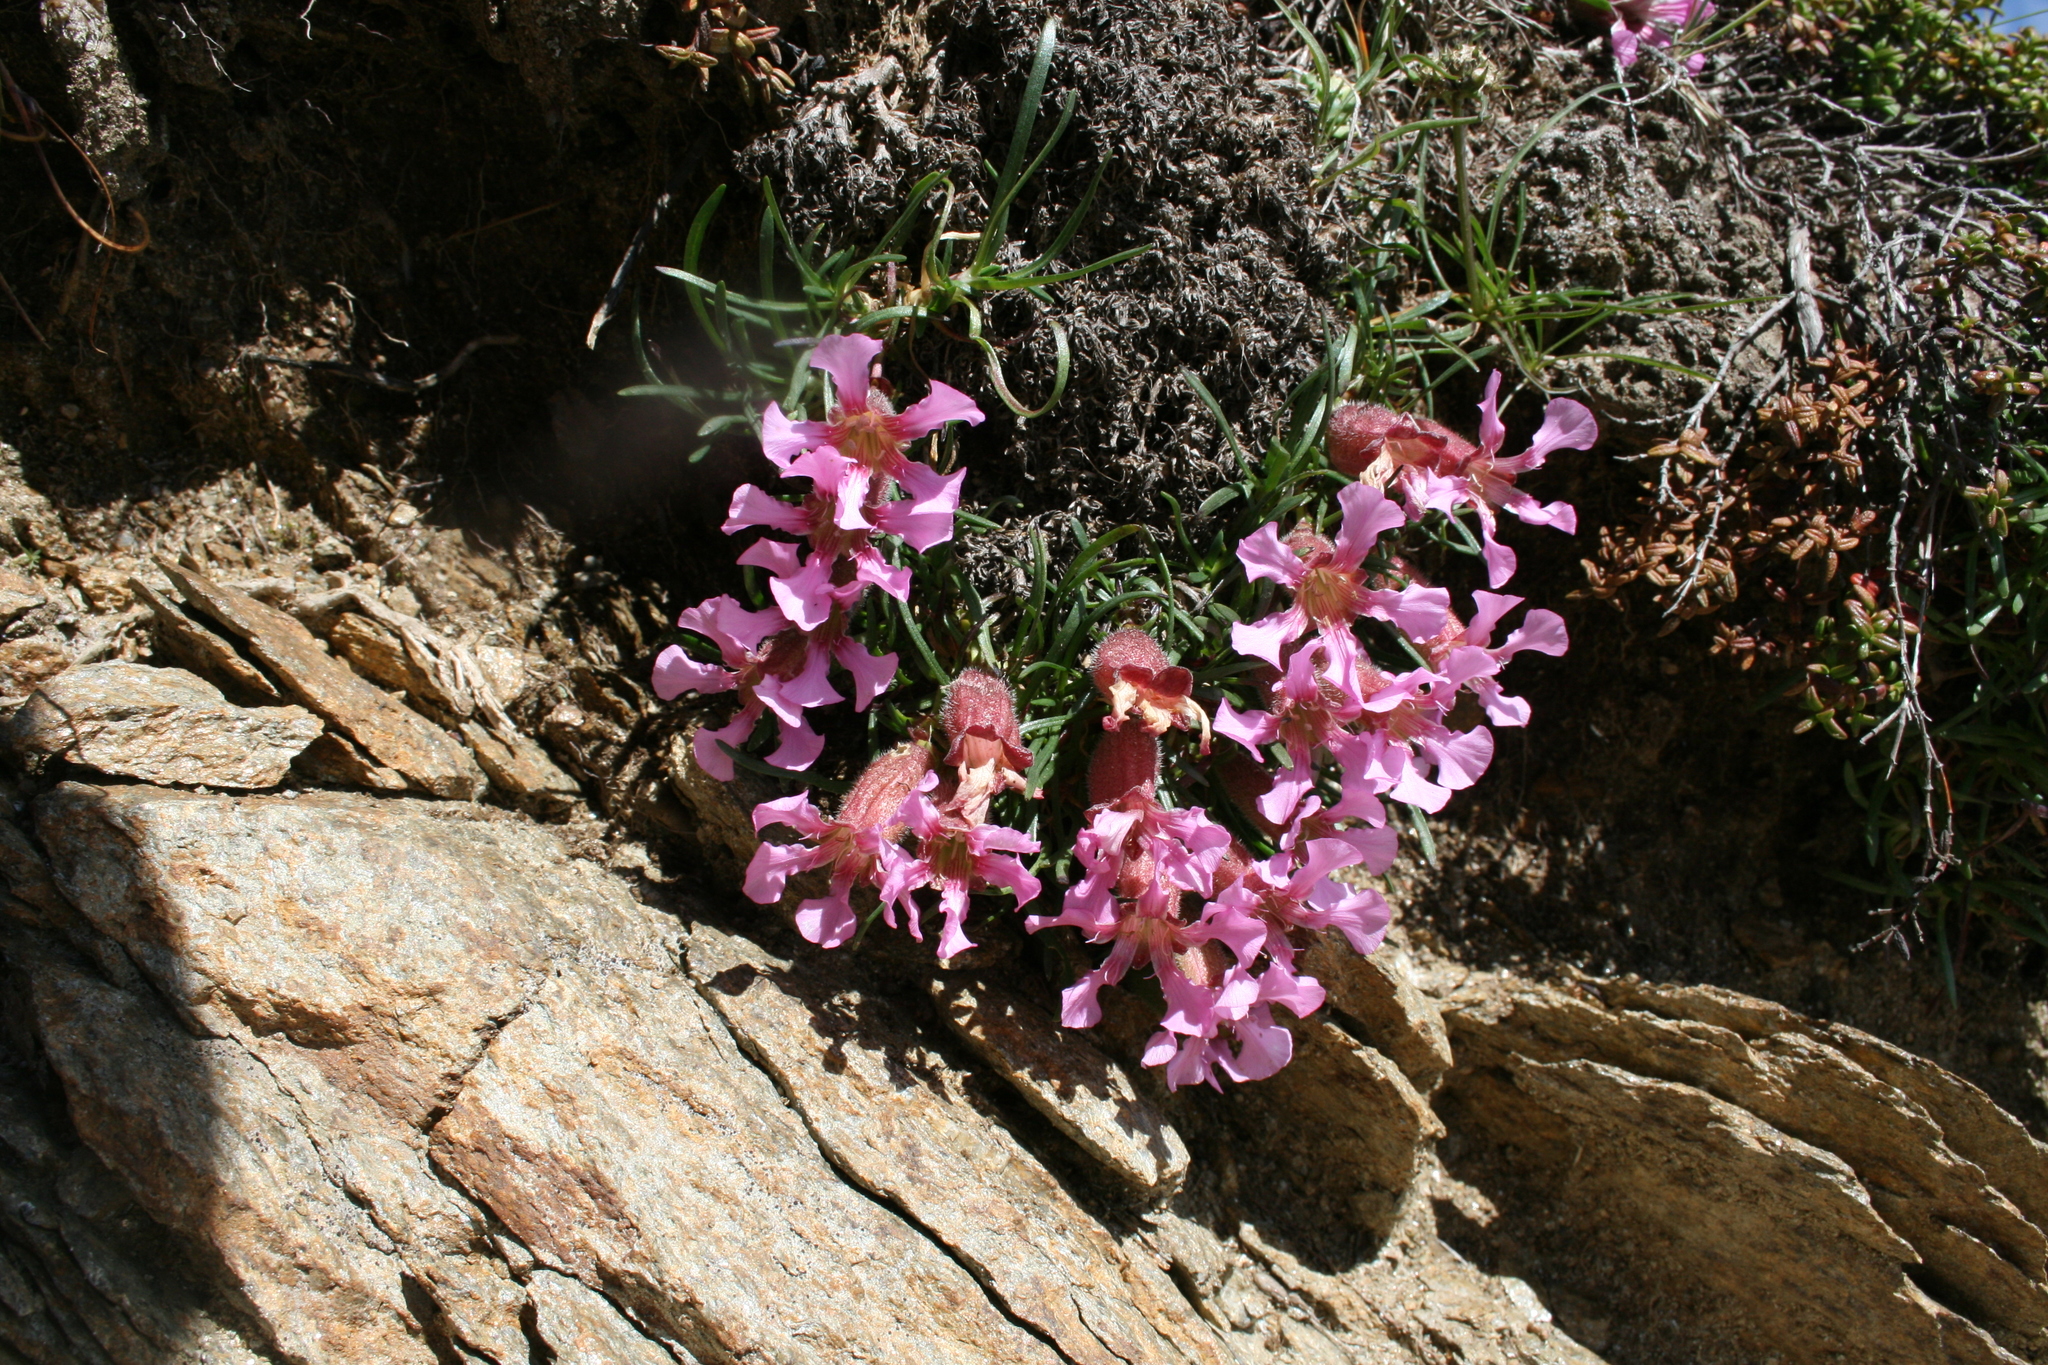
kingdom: Plantae
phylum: Tracheophyta
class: Magnoliopsida
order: Caryophyllales
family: Caryophyllaceae
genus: Saponaria
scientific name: Saponaria pumila
